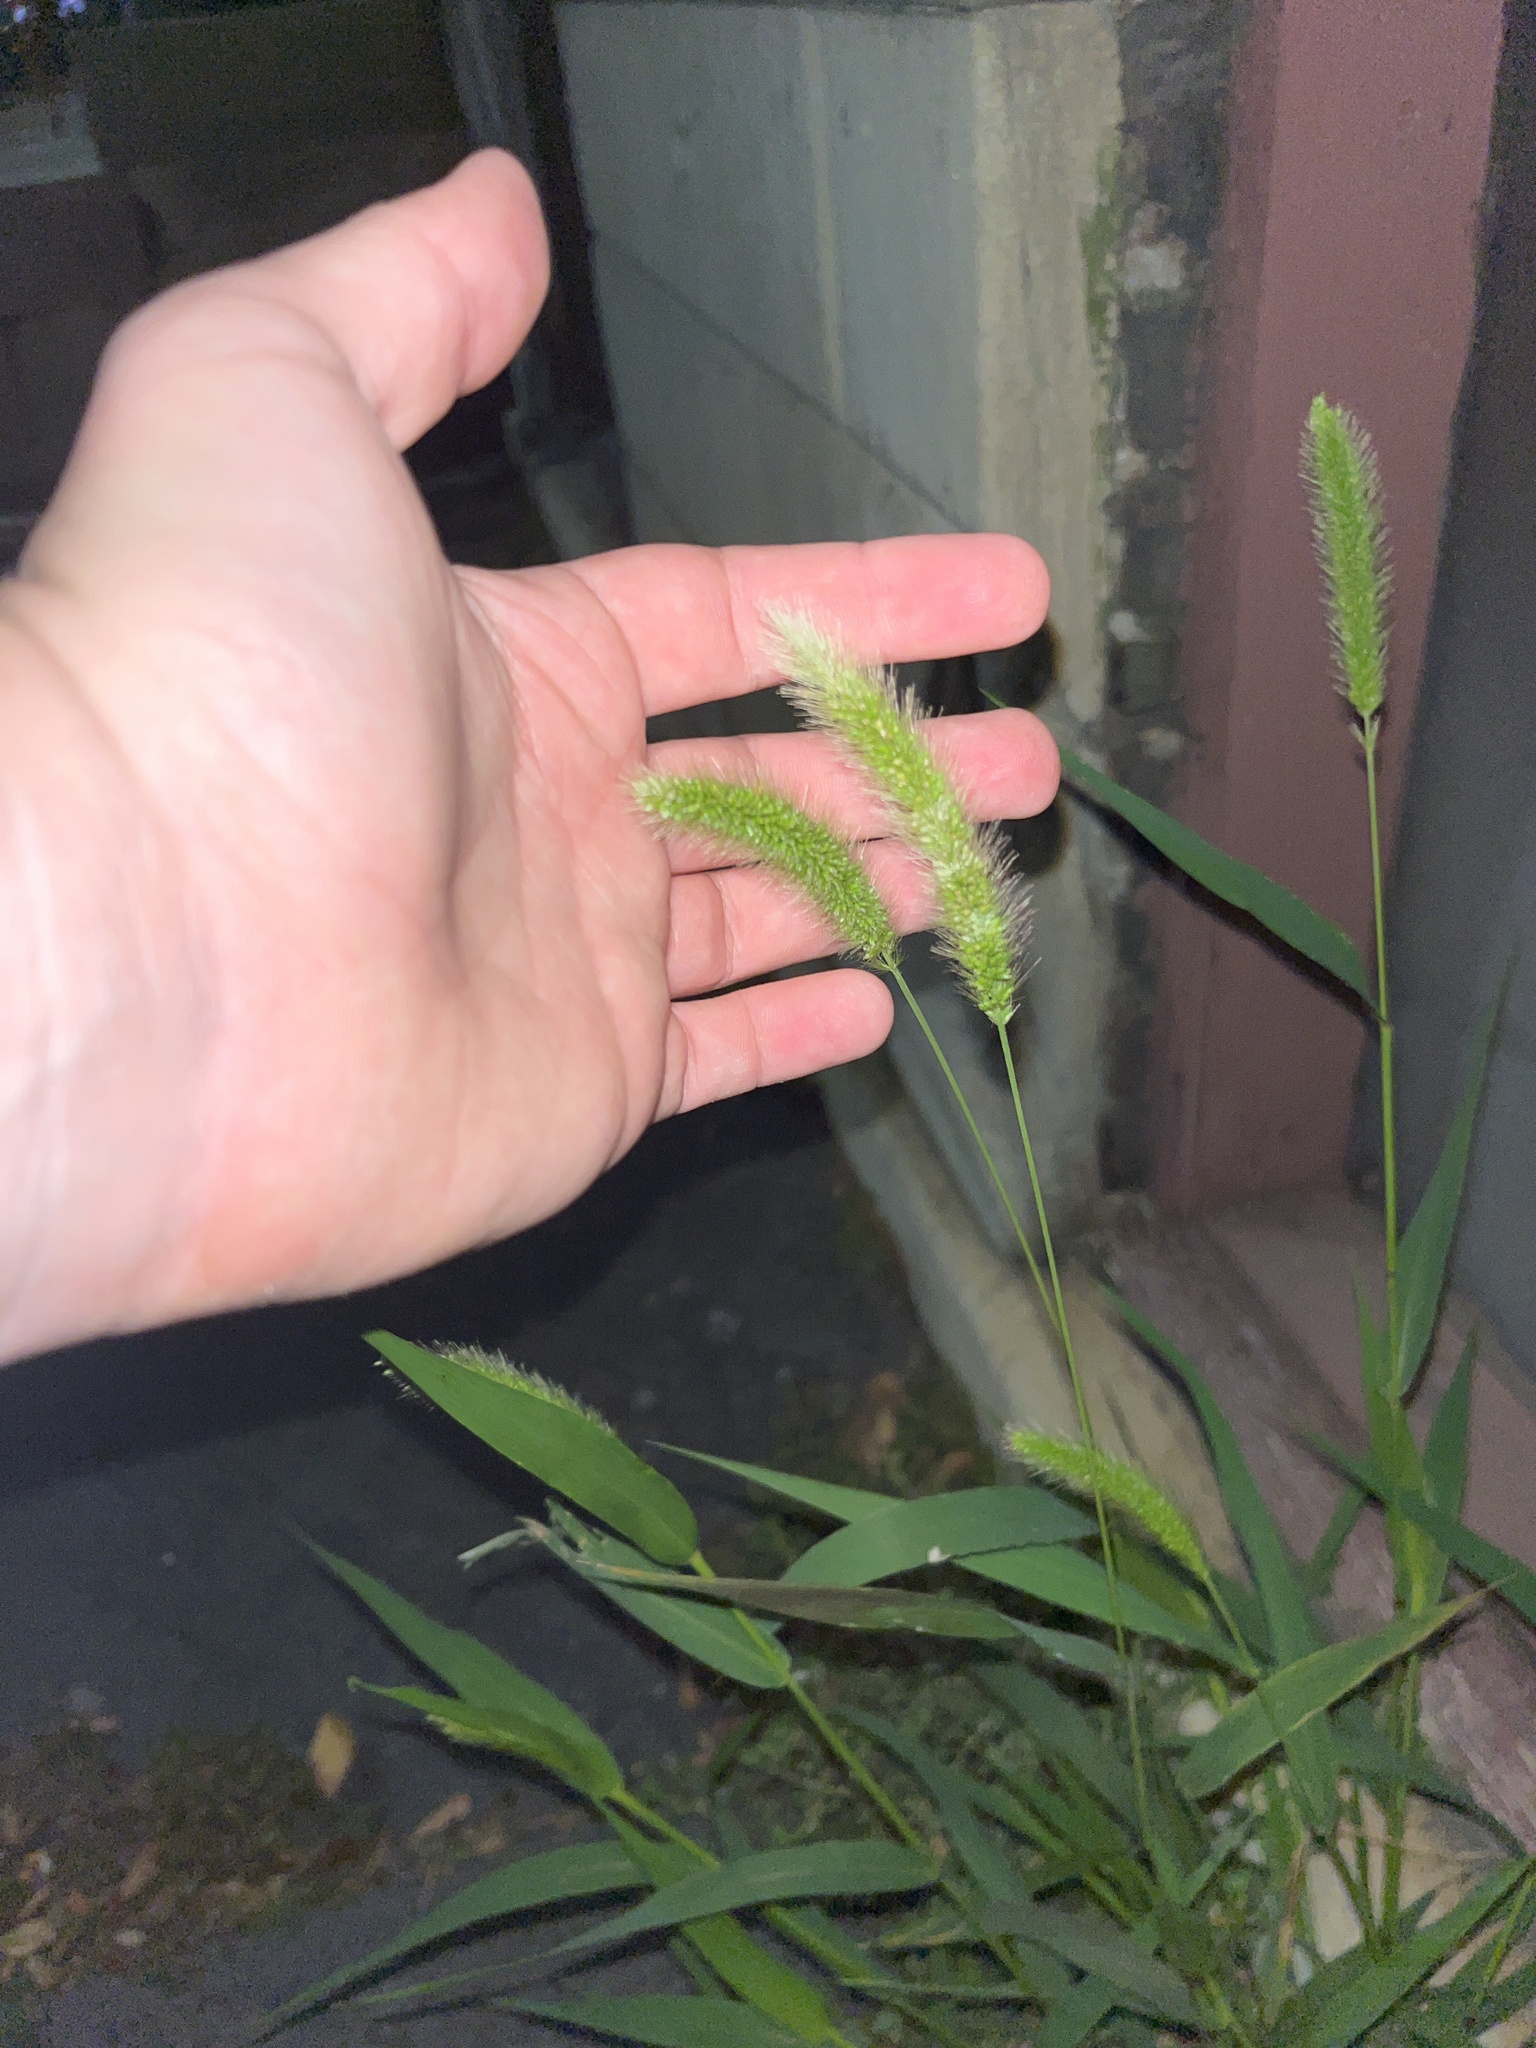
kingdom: Plantae
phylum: Tracheophyta
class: Liliopsida
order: Poales
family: Poaceae
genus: Setaria
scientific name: Setaria viridis
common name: Green bristlegrass
